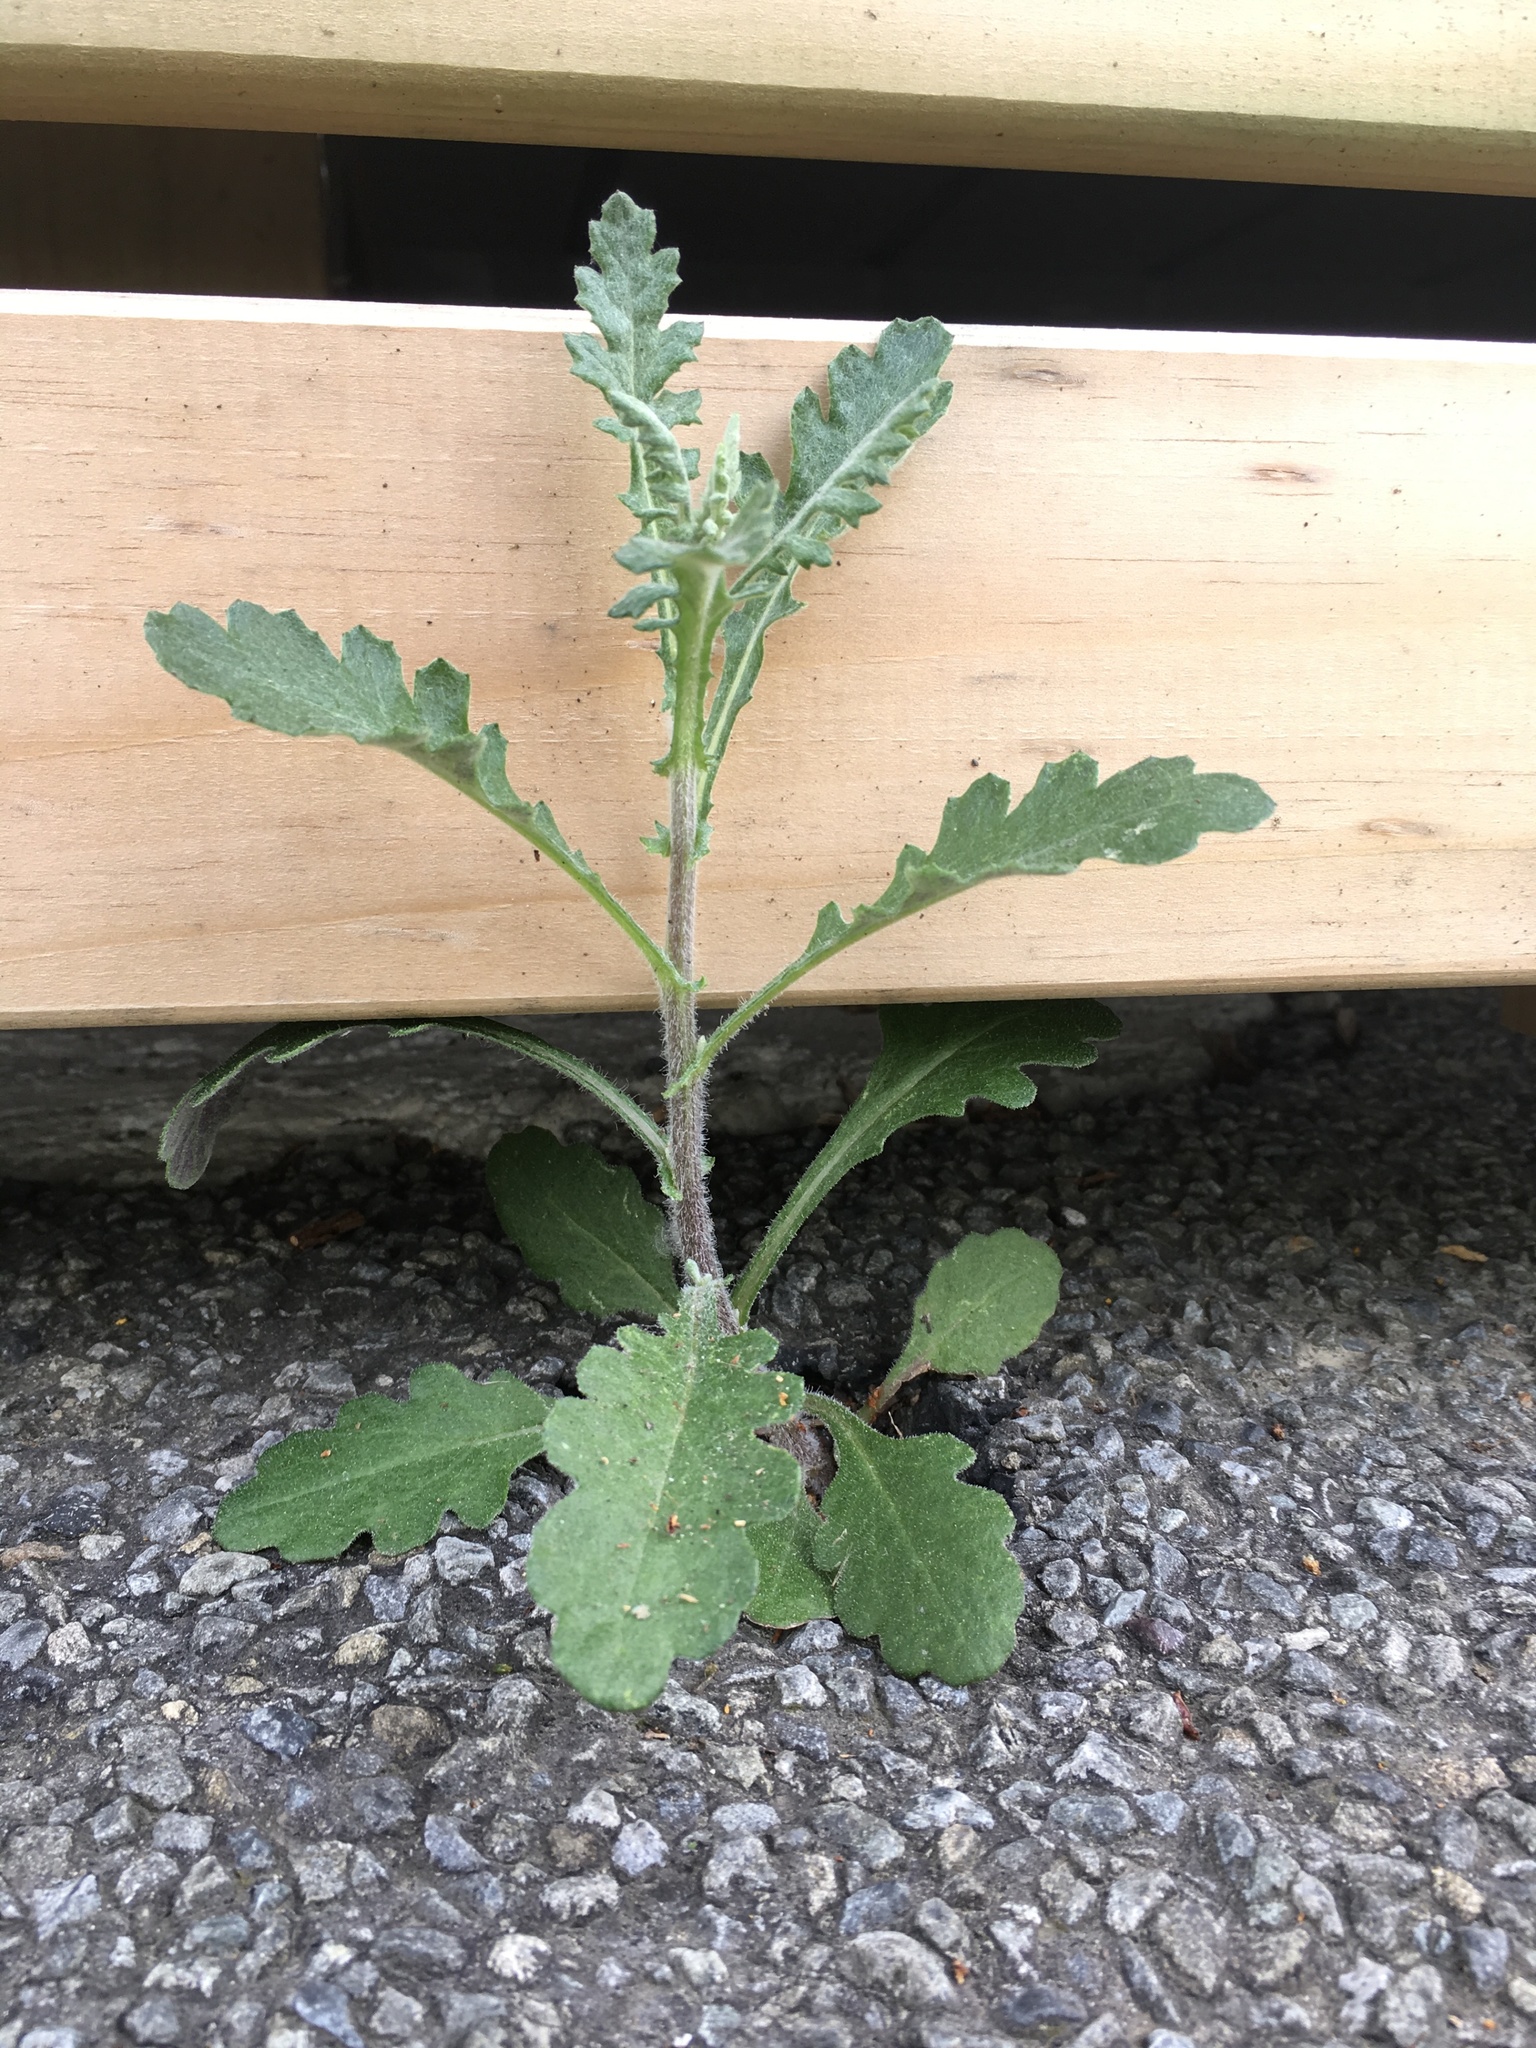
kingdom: Plantae
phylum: Tracheophyta
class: Magnoliopsida
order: Asterales
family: Asteraceae
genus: Senecio
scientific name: Senecio glomeratus
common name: Cutleaf burnweed
